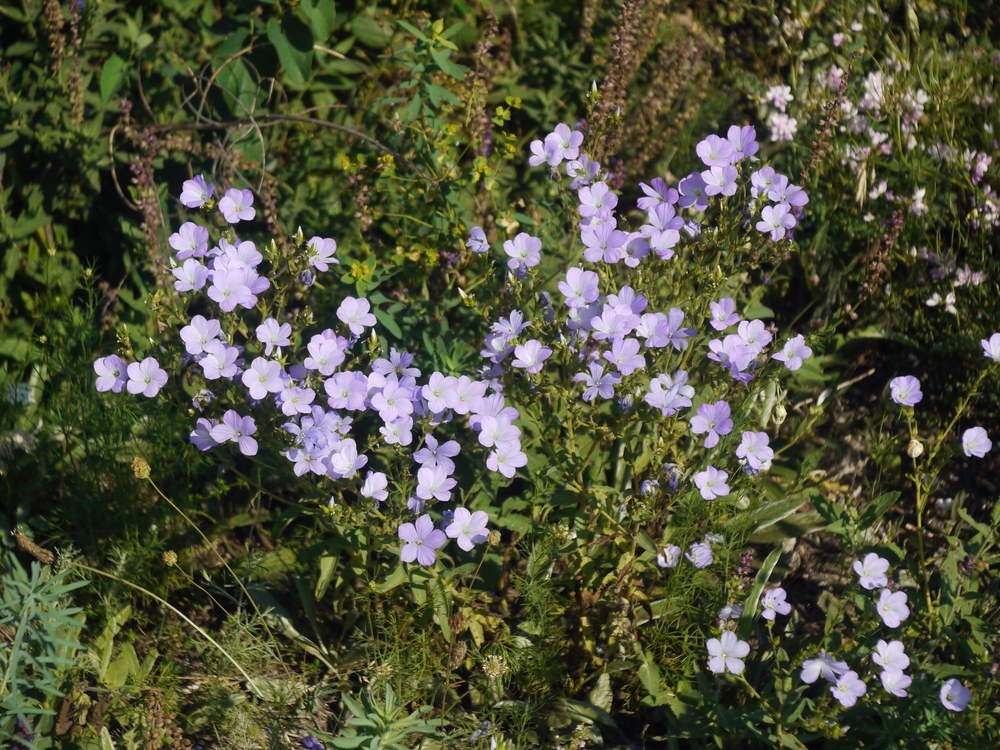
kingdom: Plantae
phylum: Tracheophyta
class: Magnoliopsida
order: Malpighiales
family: Linaceae
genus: Linum
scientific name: Linum hirsutum
